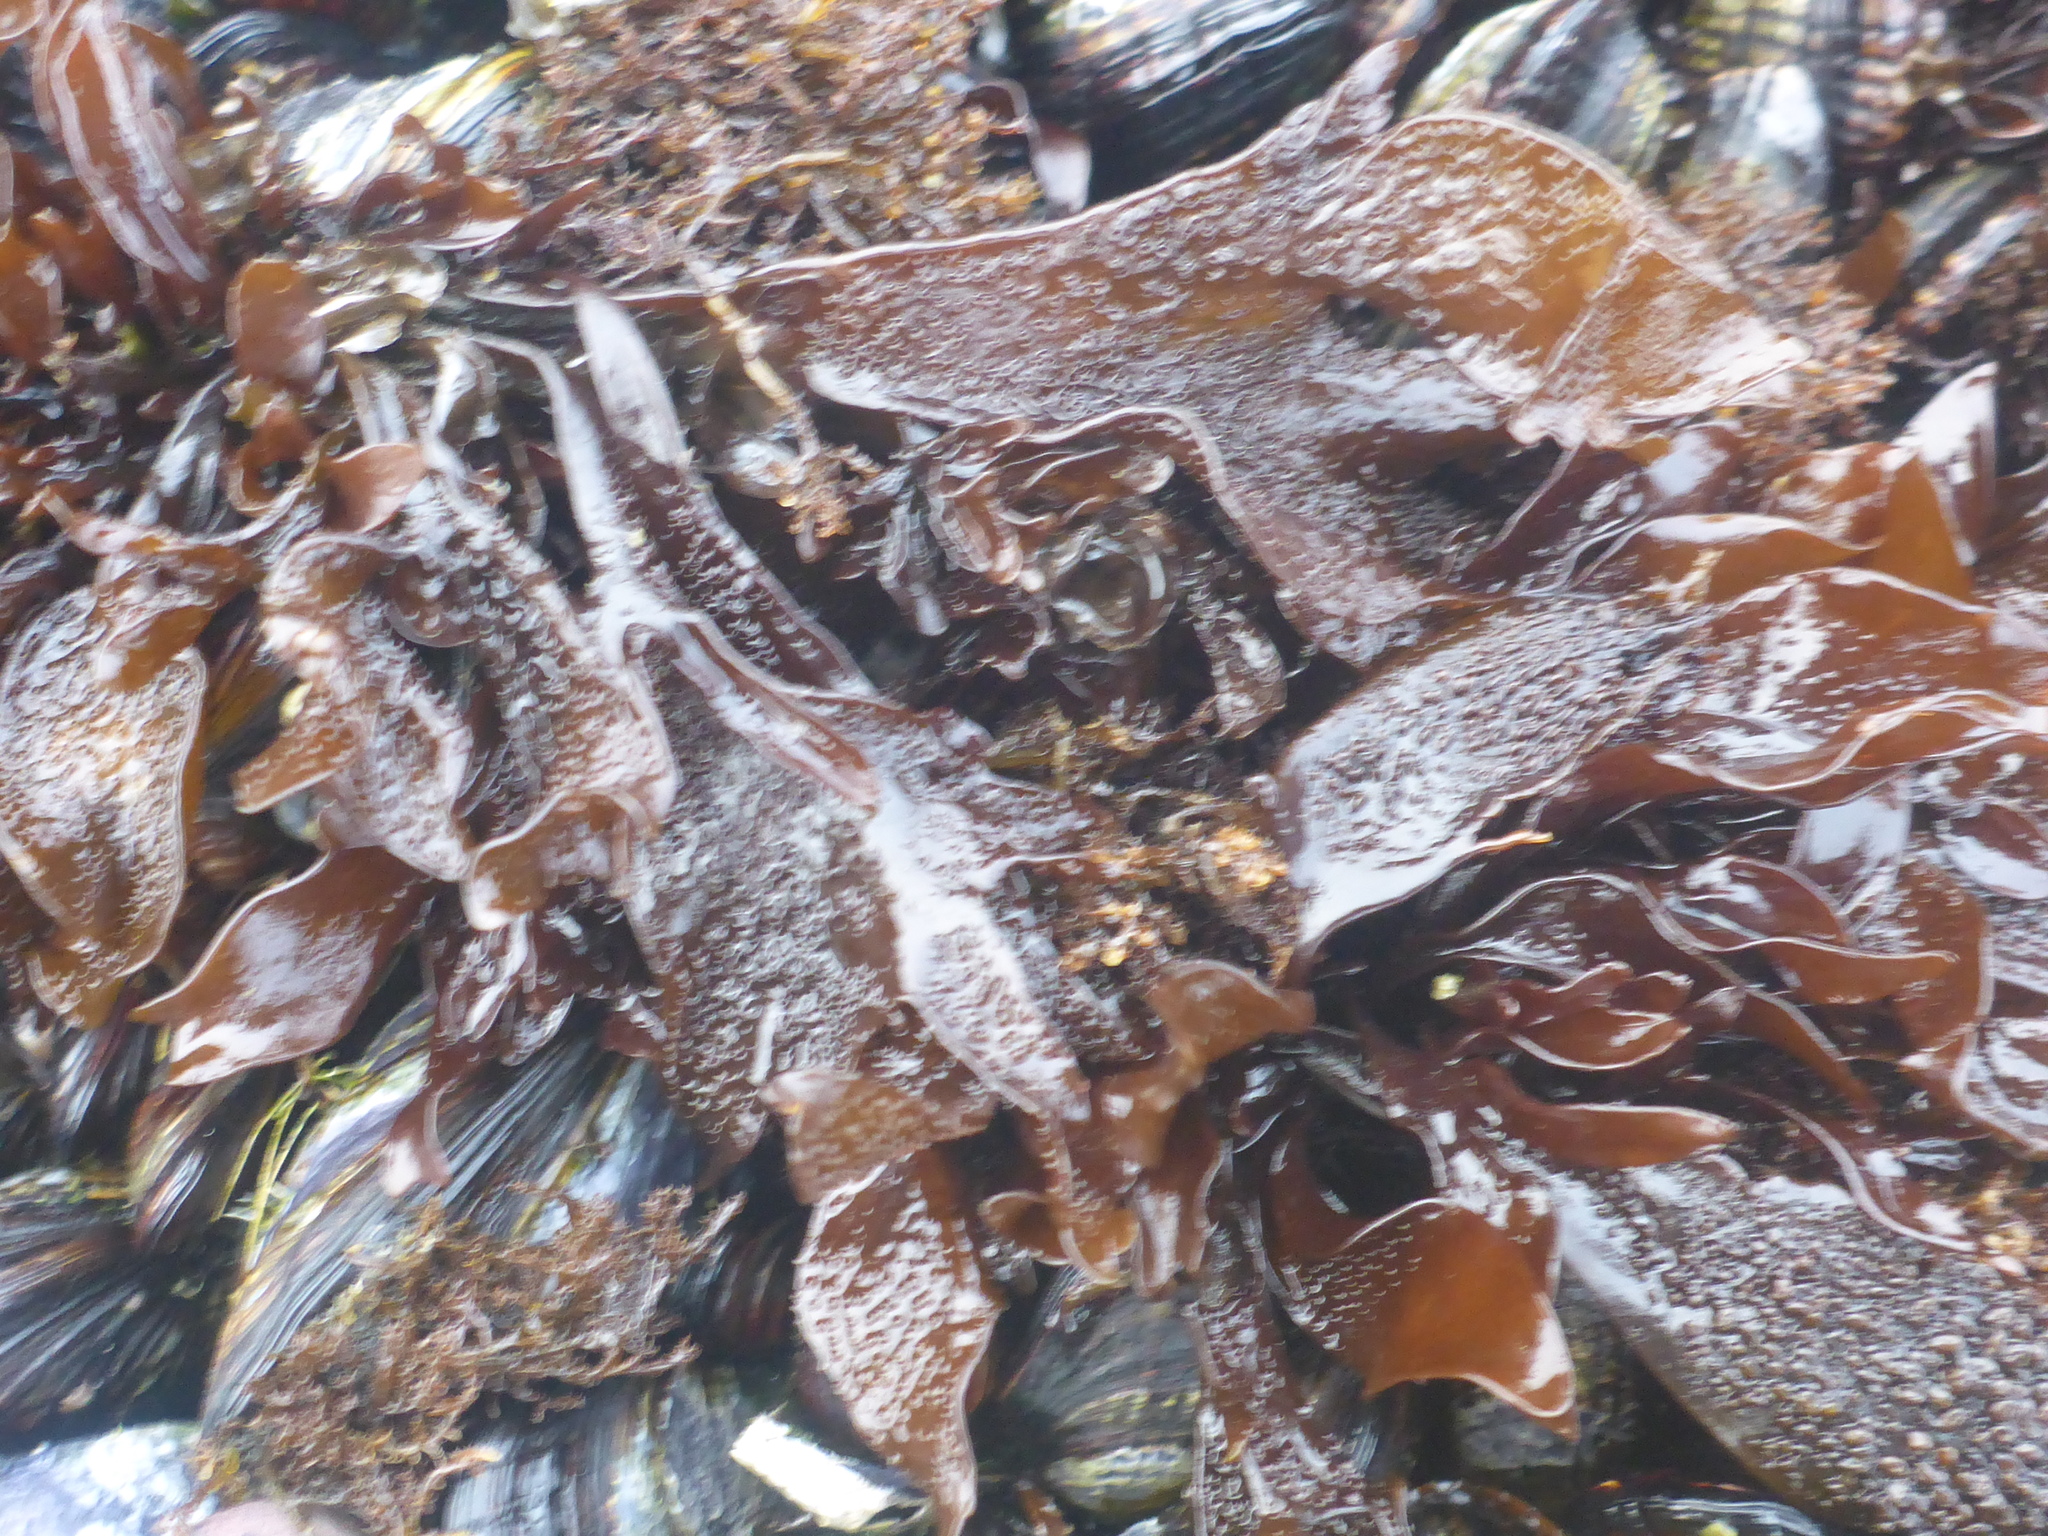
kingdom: Plantae
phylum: Rhodophyta
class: Florideophyceae
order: Gigartinales
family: Phyllophoraceae
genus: Mastocarpus
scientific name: Mastocarpus papillatus
